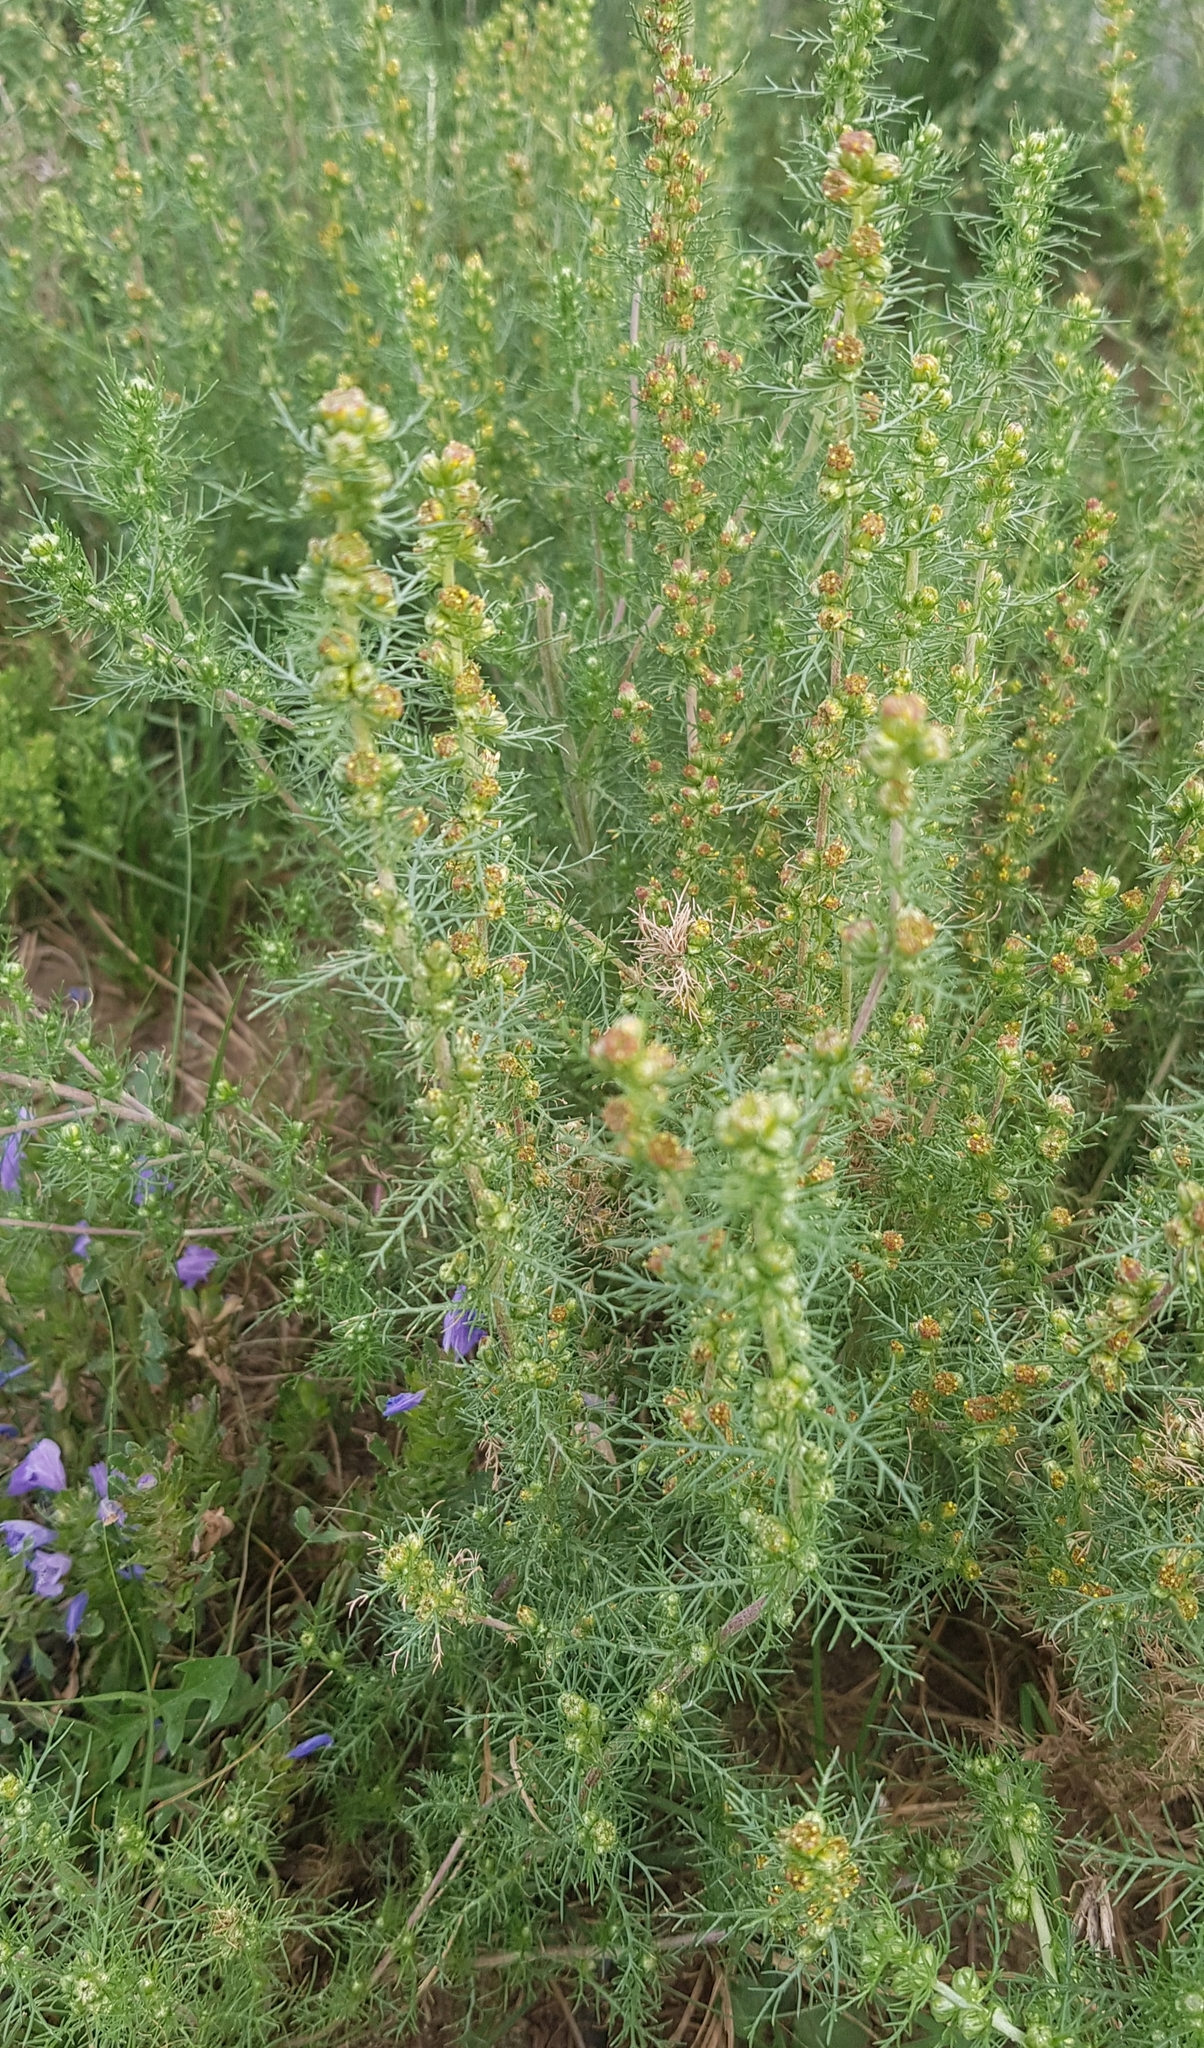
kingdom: Plantae
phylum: Tracheophyta
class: Magnoliopsida
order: Asterales
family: Asteraceae
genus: Neopallasia
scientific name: Neopallasia pectinata
